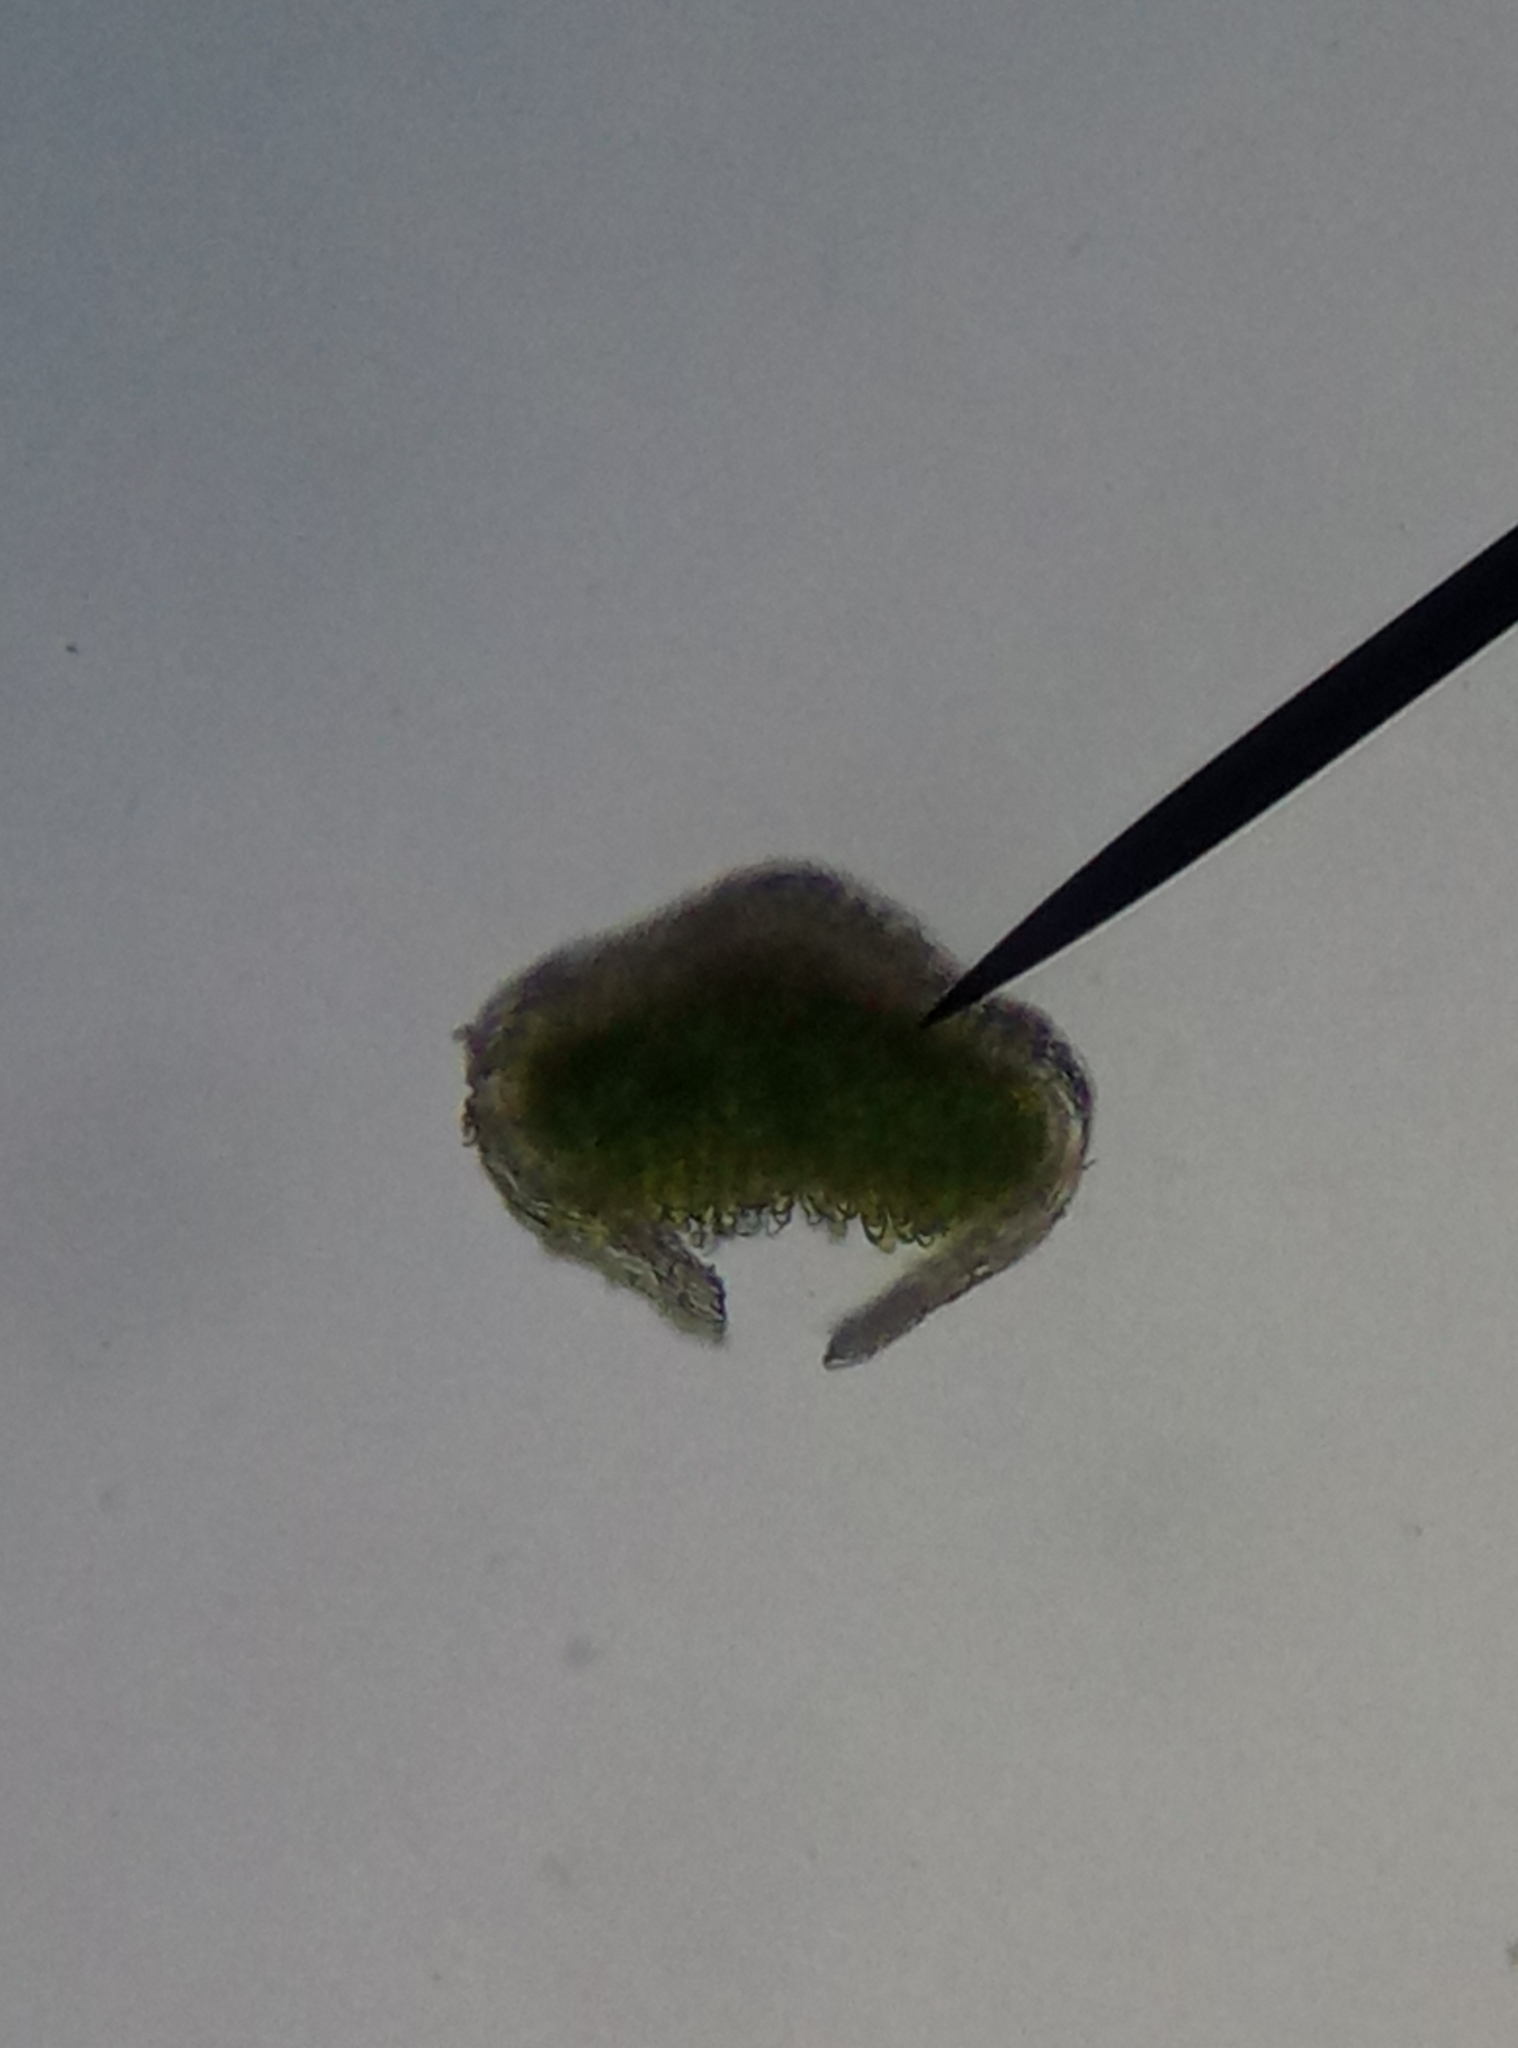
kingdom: Plantae
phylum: Bryophyta
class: Polytrichopsida
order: Polytrichales
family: Polytrichaceae
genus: Polytrichum
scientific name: Polytrichum piliferum
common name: Bristly haircap
